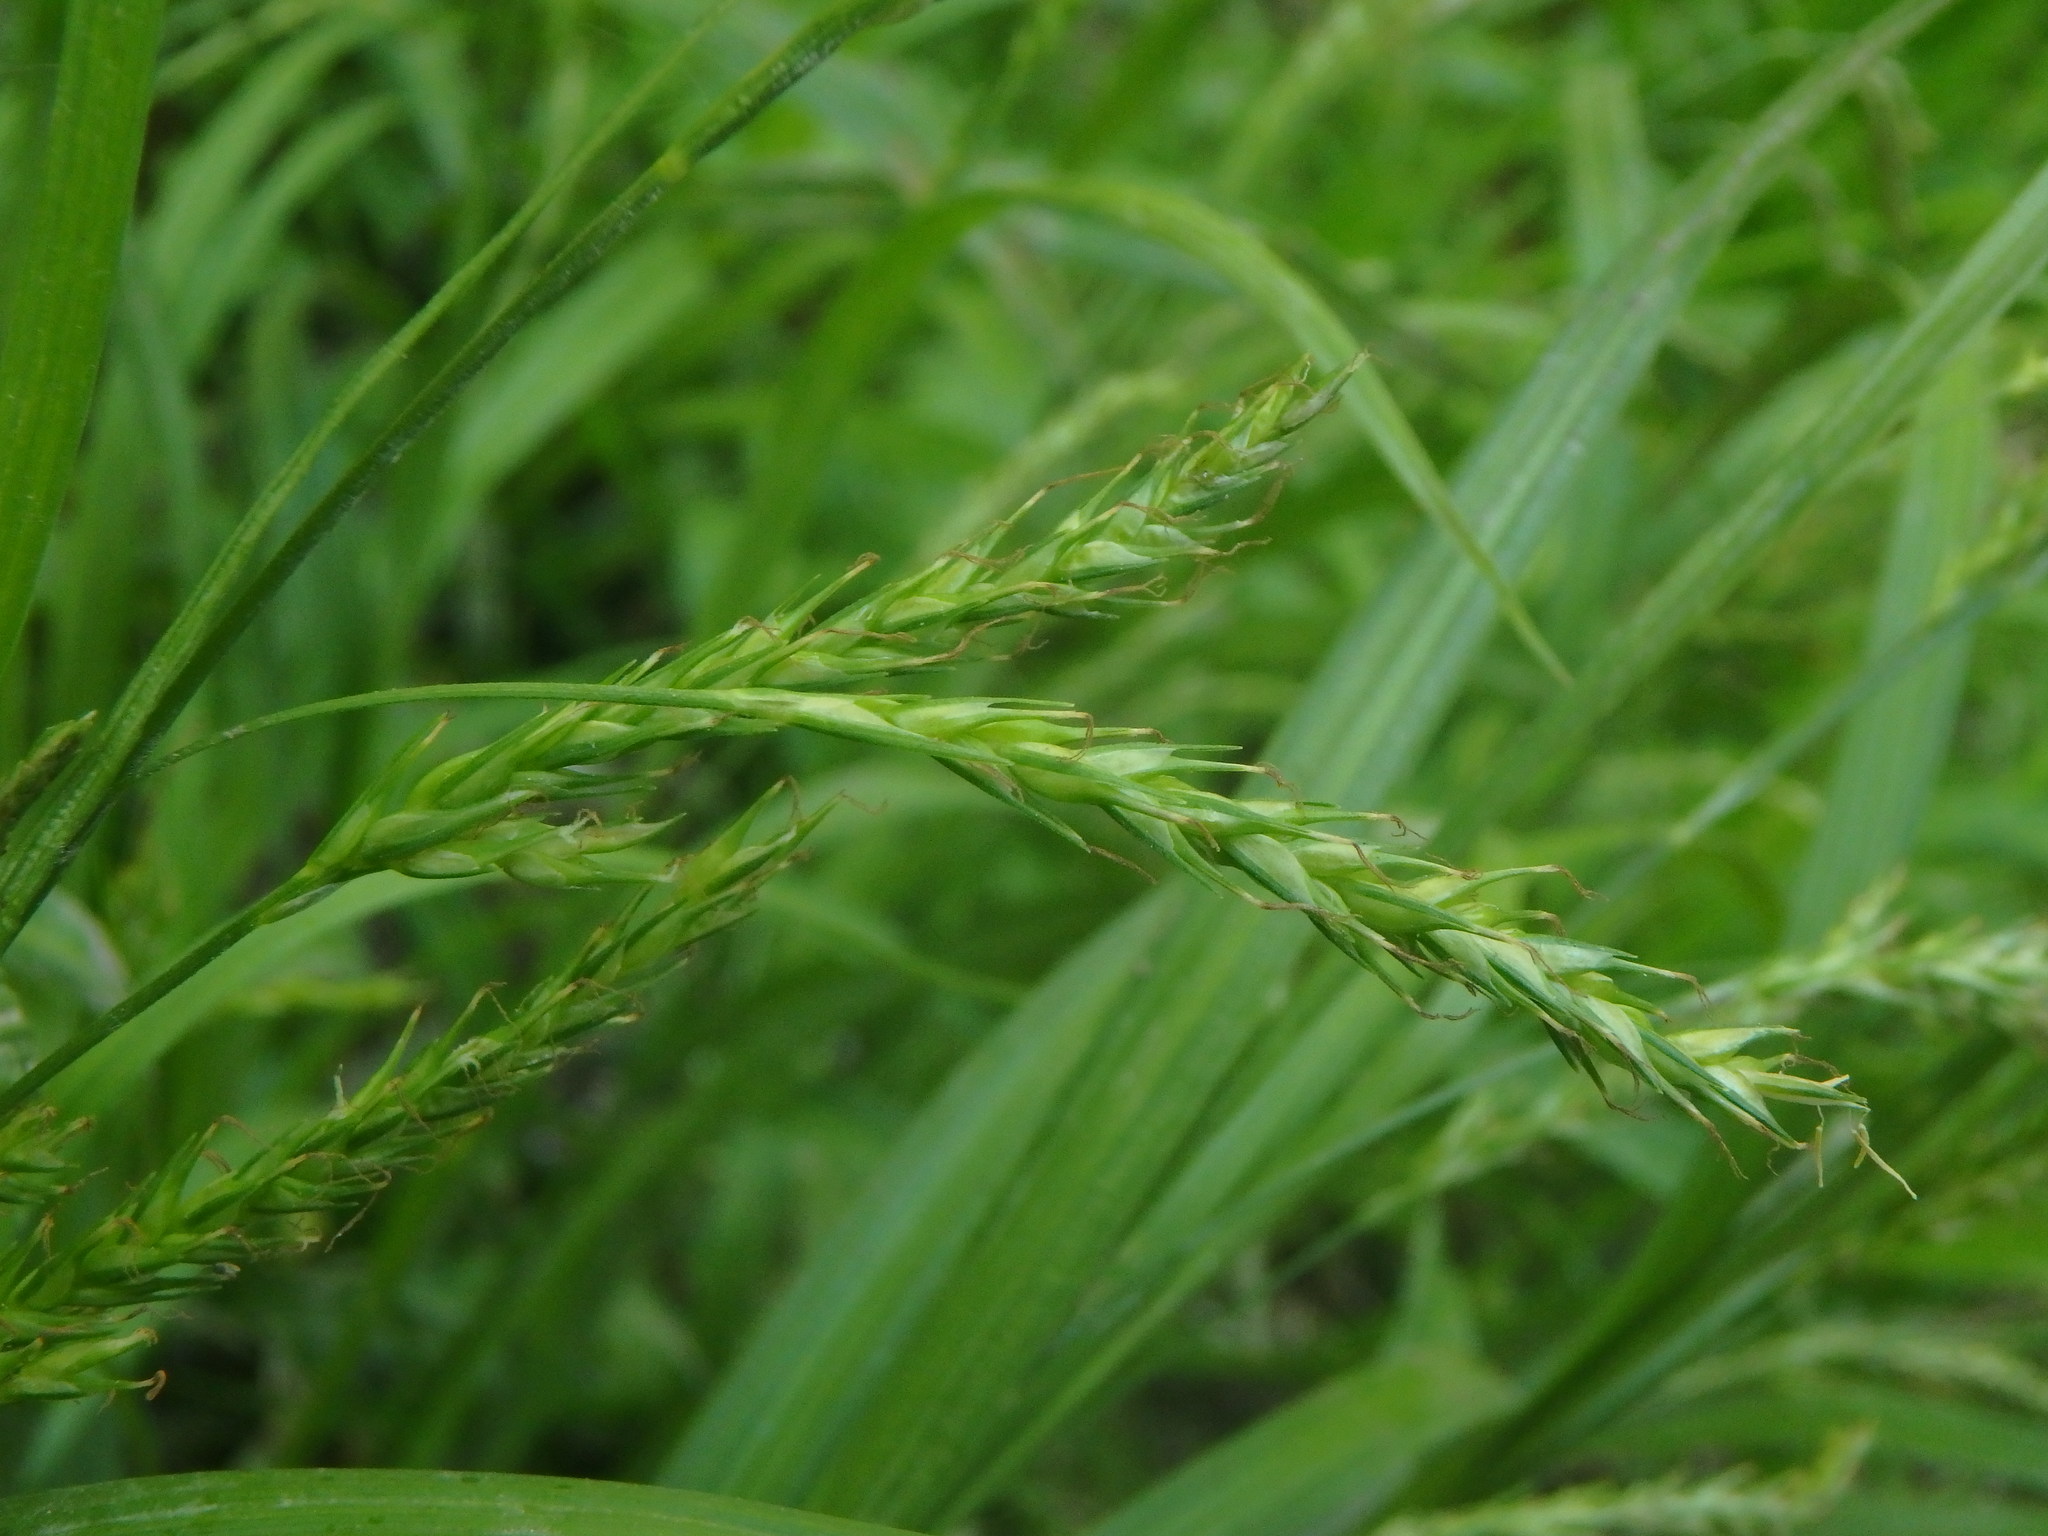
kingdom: Plantae
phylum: Tracheophyta
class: Liliopsida
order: Poales
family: Cyperaceae
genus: Carex
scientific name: Carex sylvatica
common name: Wood-sedge
